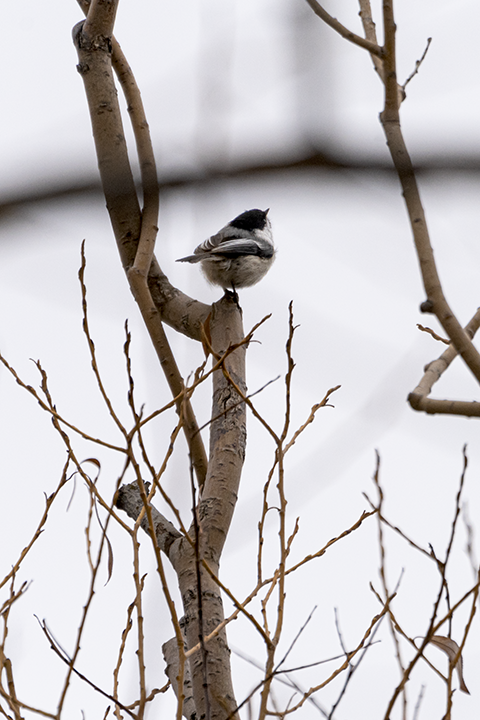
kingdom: Animalia
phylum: Chordata
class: Aves
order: Passeriformes
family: Paridae
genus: Poecile
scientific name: Poecile atricapillus
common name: Black-capped chickadee
